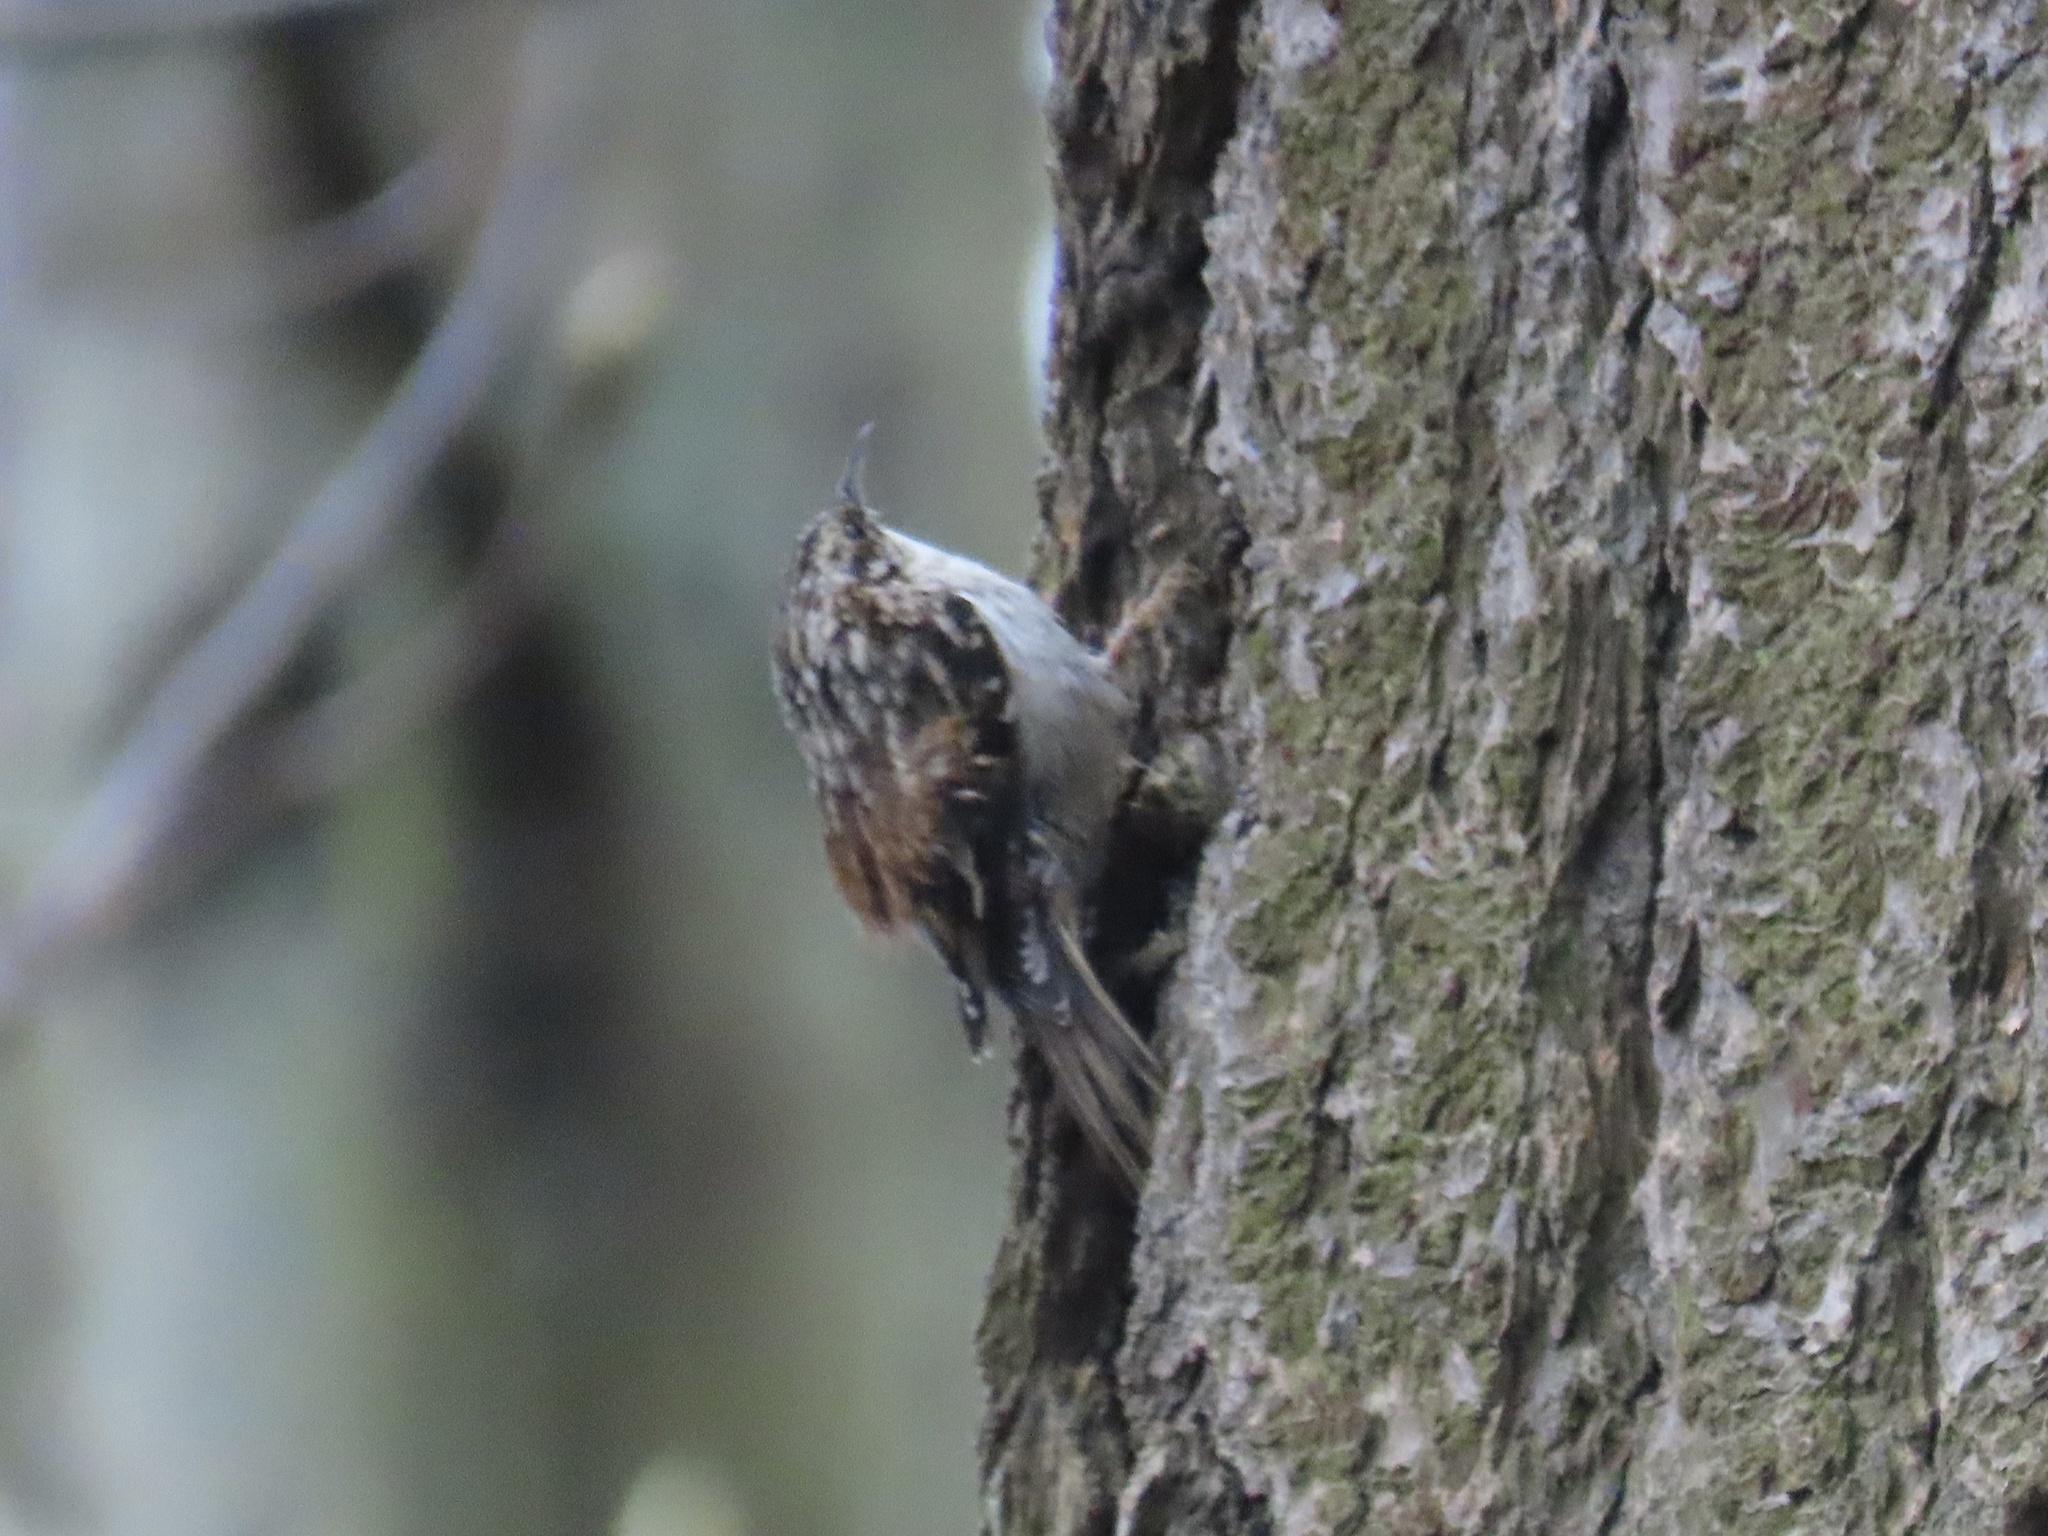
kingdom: Animalia
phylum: Chordata
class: Aves
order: Passeriformes
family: Certhiidae
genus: Certhia
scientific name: Certhia americana
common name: Brown creeper
